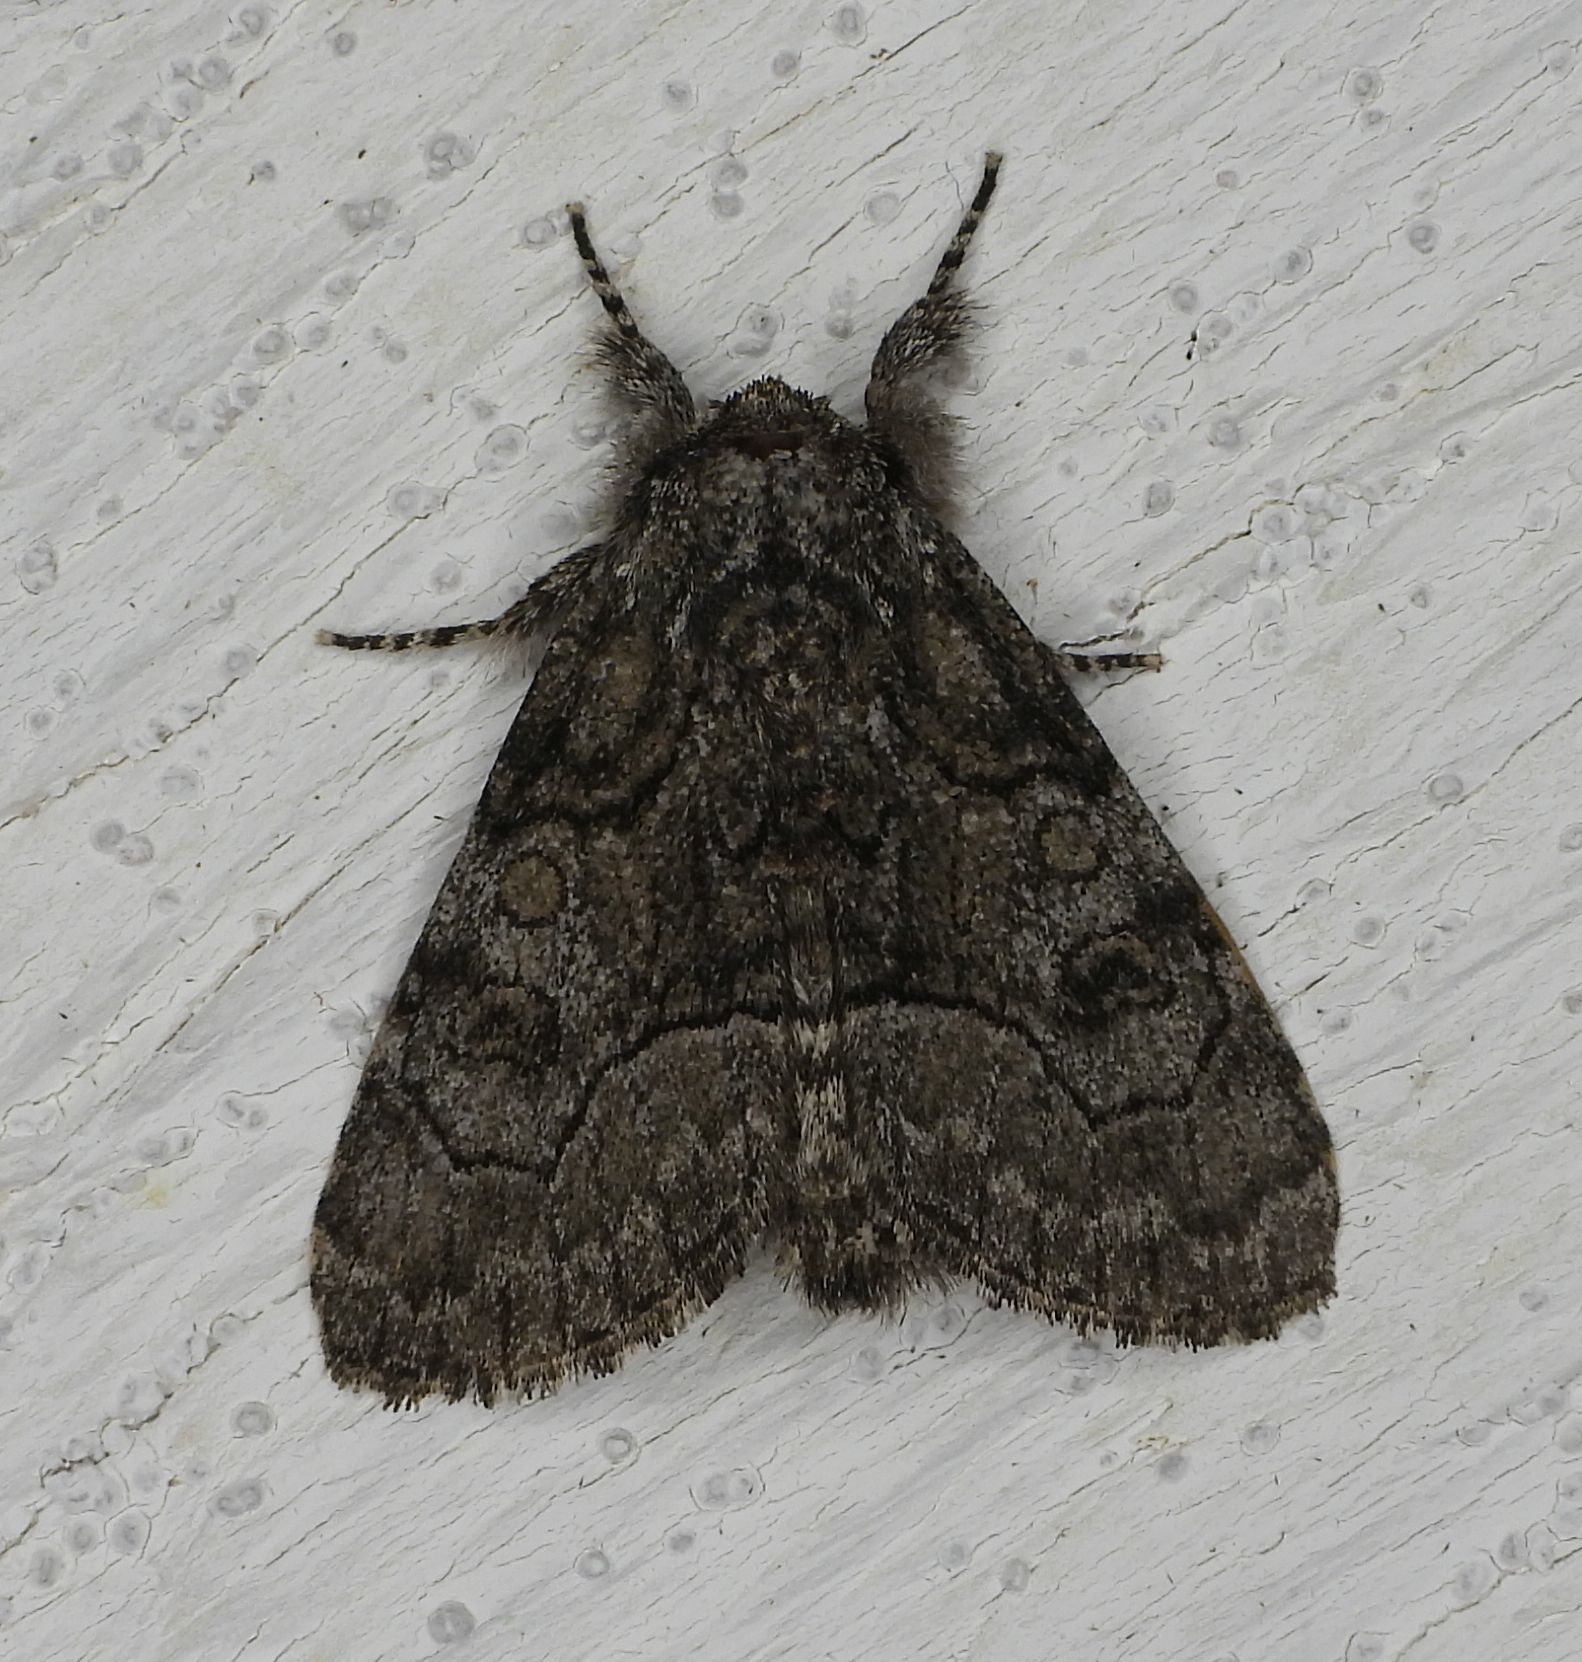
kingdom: Animalia
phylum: Arthropoda
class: Insecta
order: Lepidoptera
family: Noctuidae
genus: Raphia
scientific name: Raphia frater
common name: Brother
